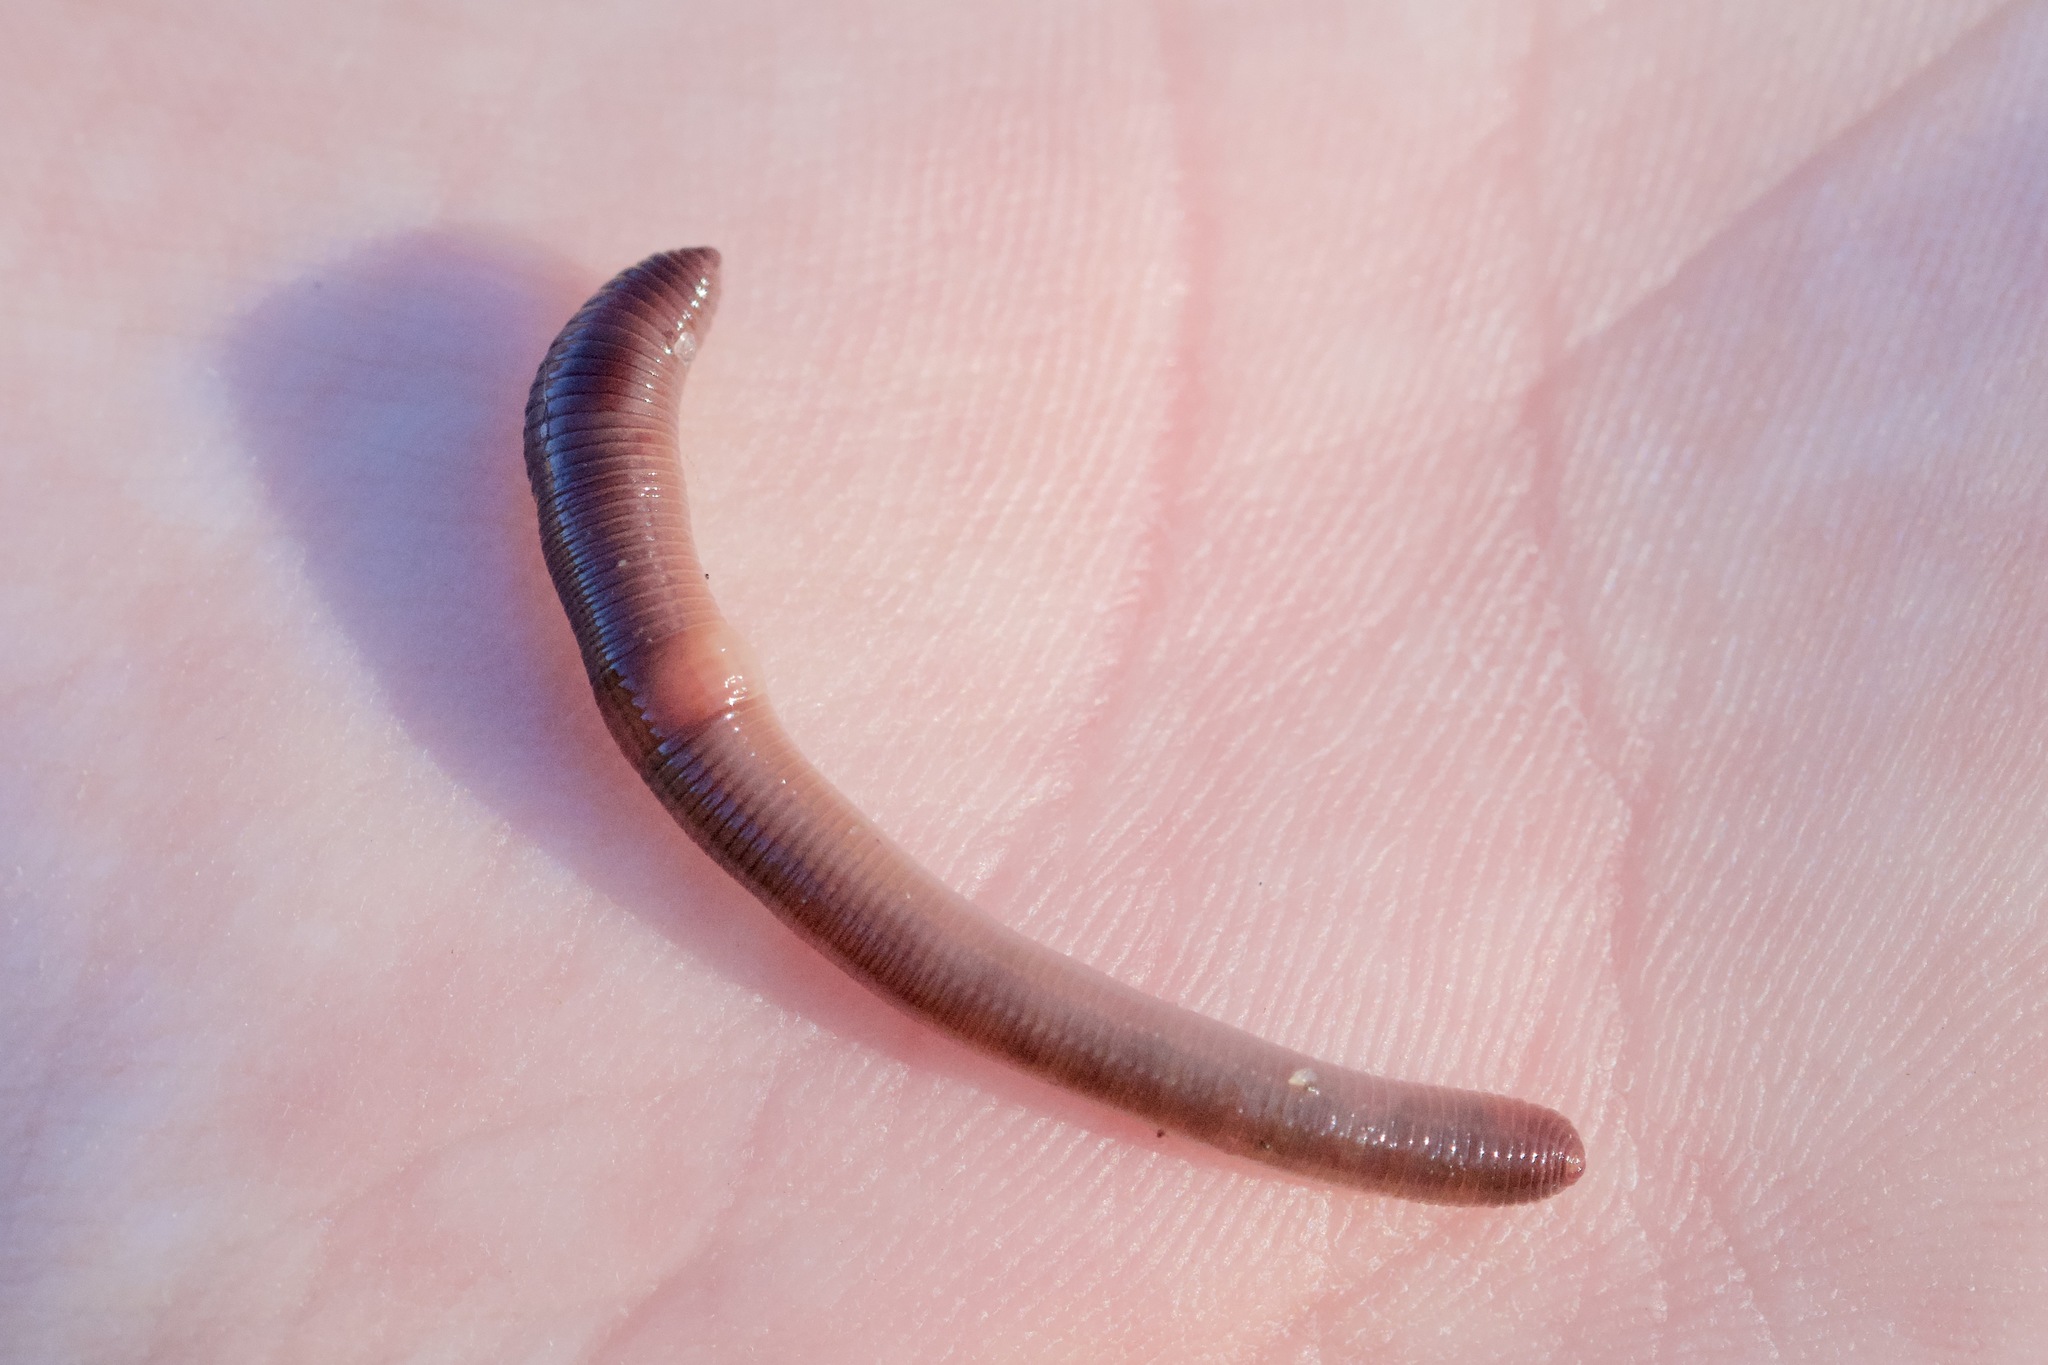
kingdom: Animalia
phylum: Annelida
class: Clitellata
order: Crassiclitellata
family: Lumbricidae
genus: Lumbricus
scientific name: Lumbricus terrestris
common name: Common earthworm
